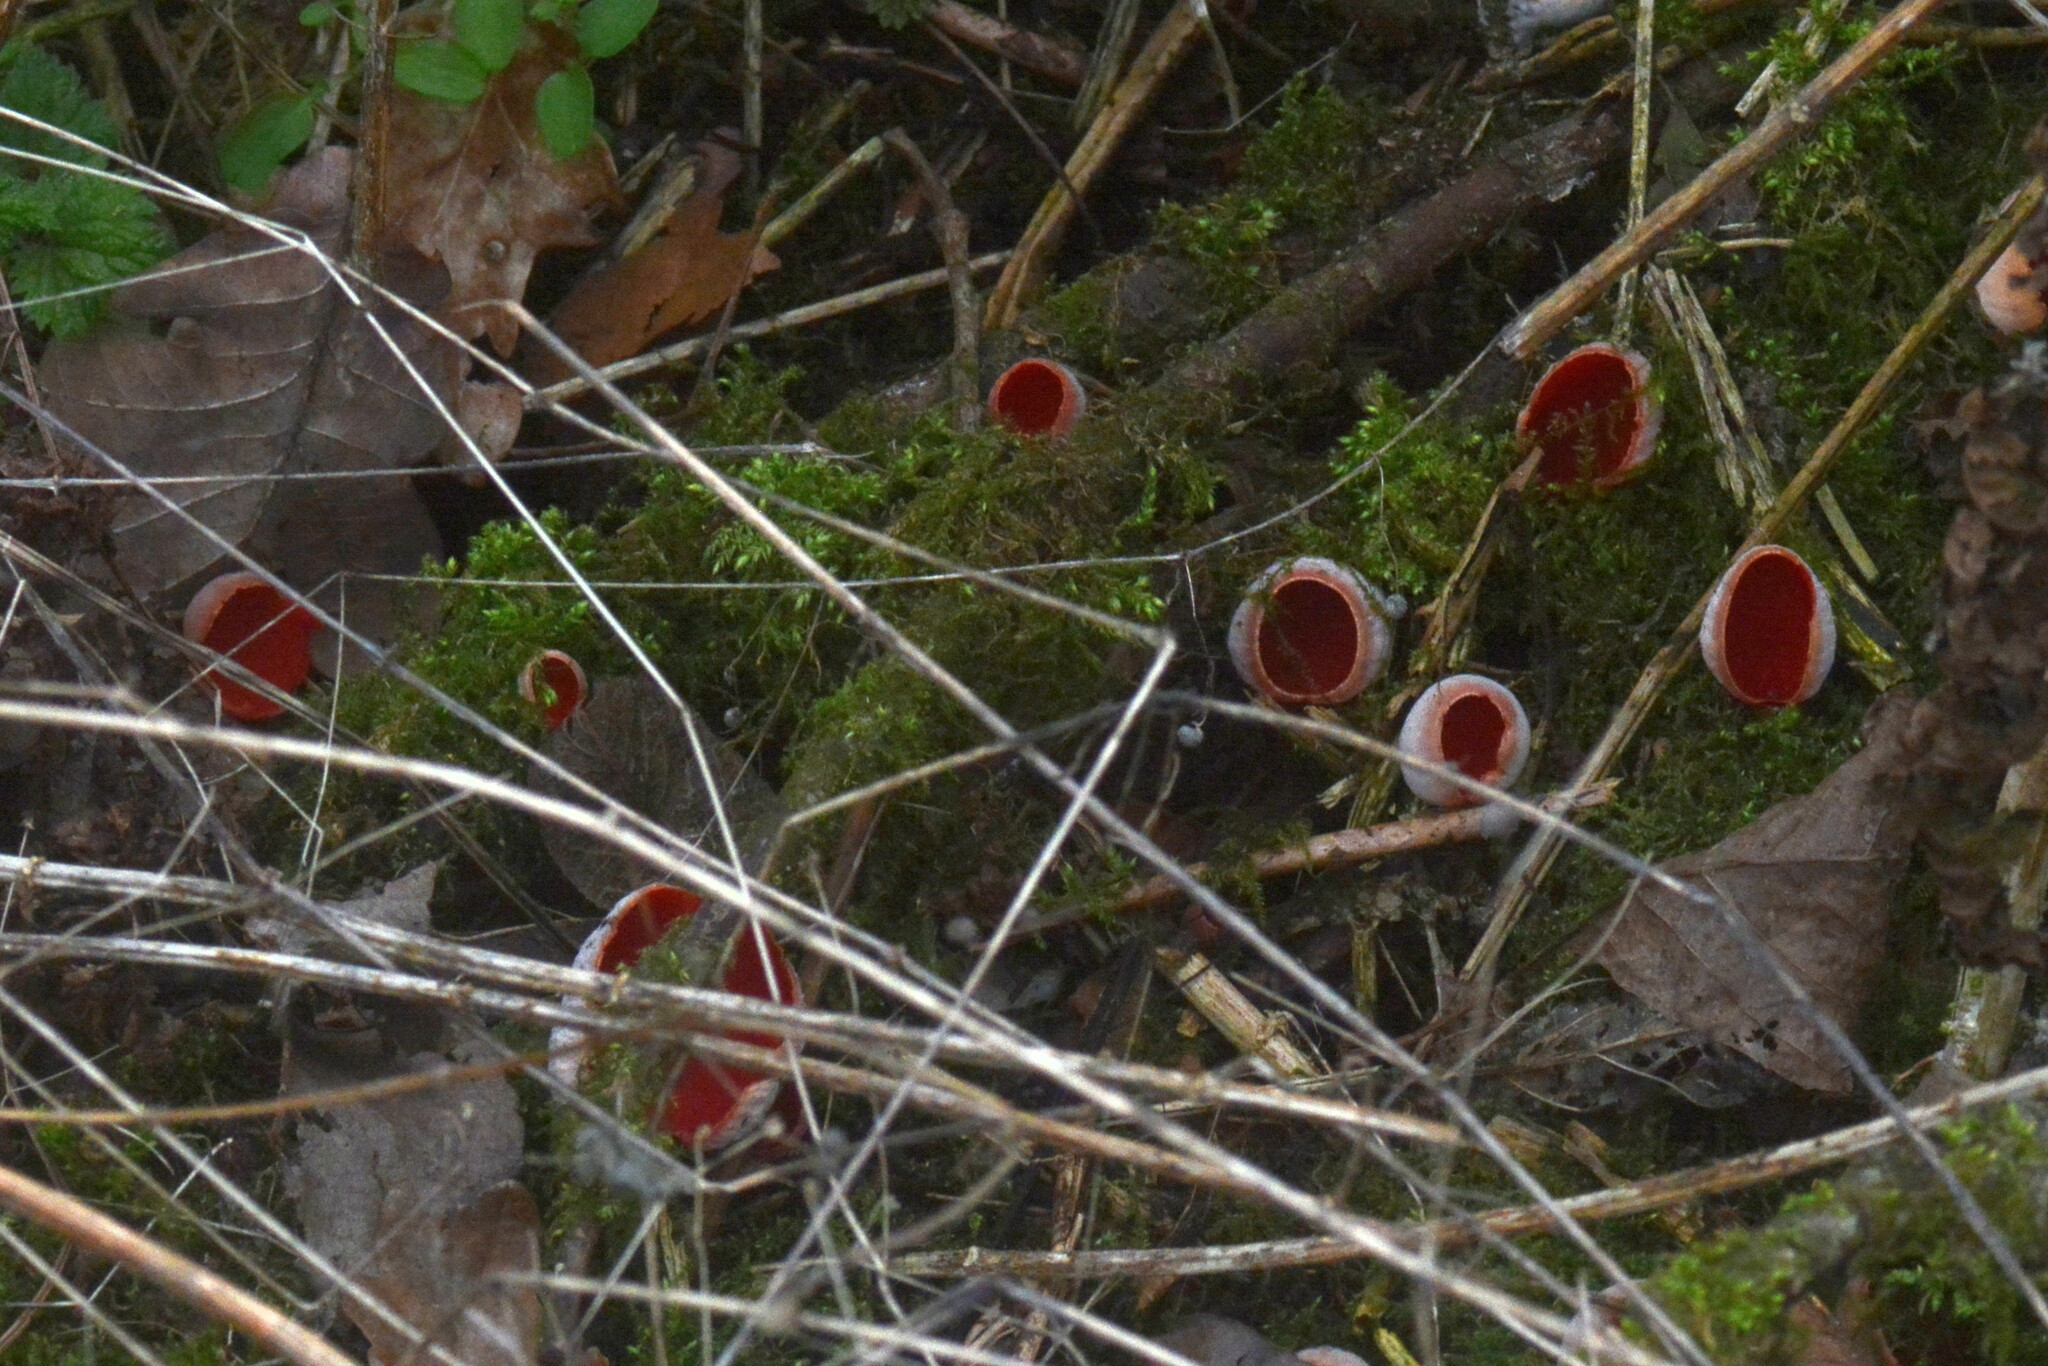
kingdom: Fungi
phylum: Ascomycota
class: Pezizomycetes
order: Pezizales
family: Sarcoscyphaceae
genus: Sarcoscypha
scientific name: Sarcoscypha
